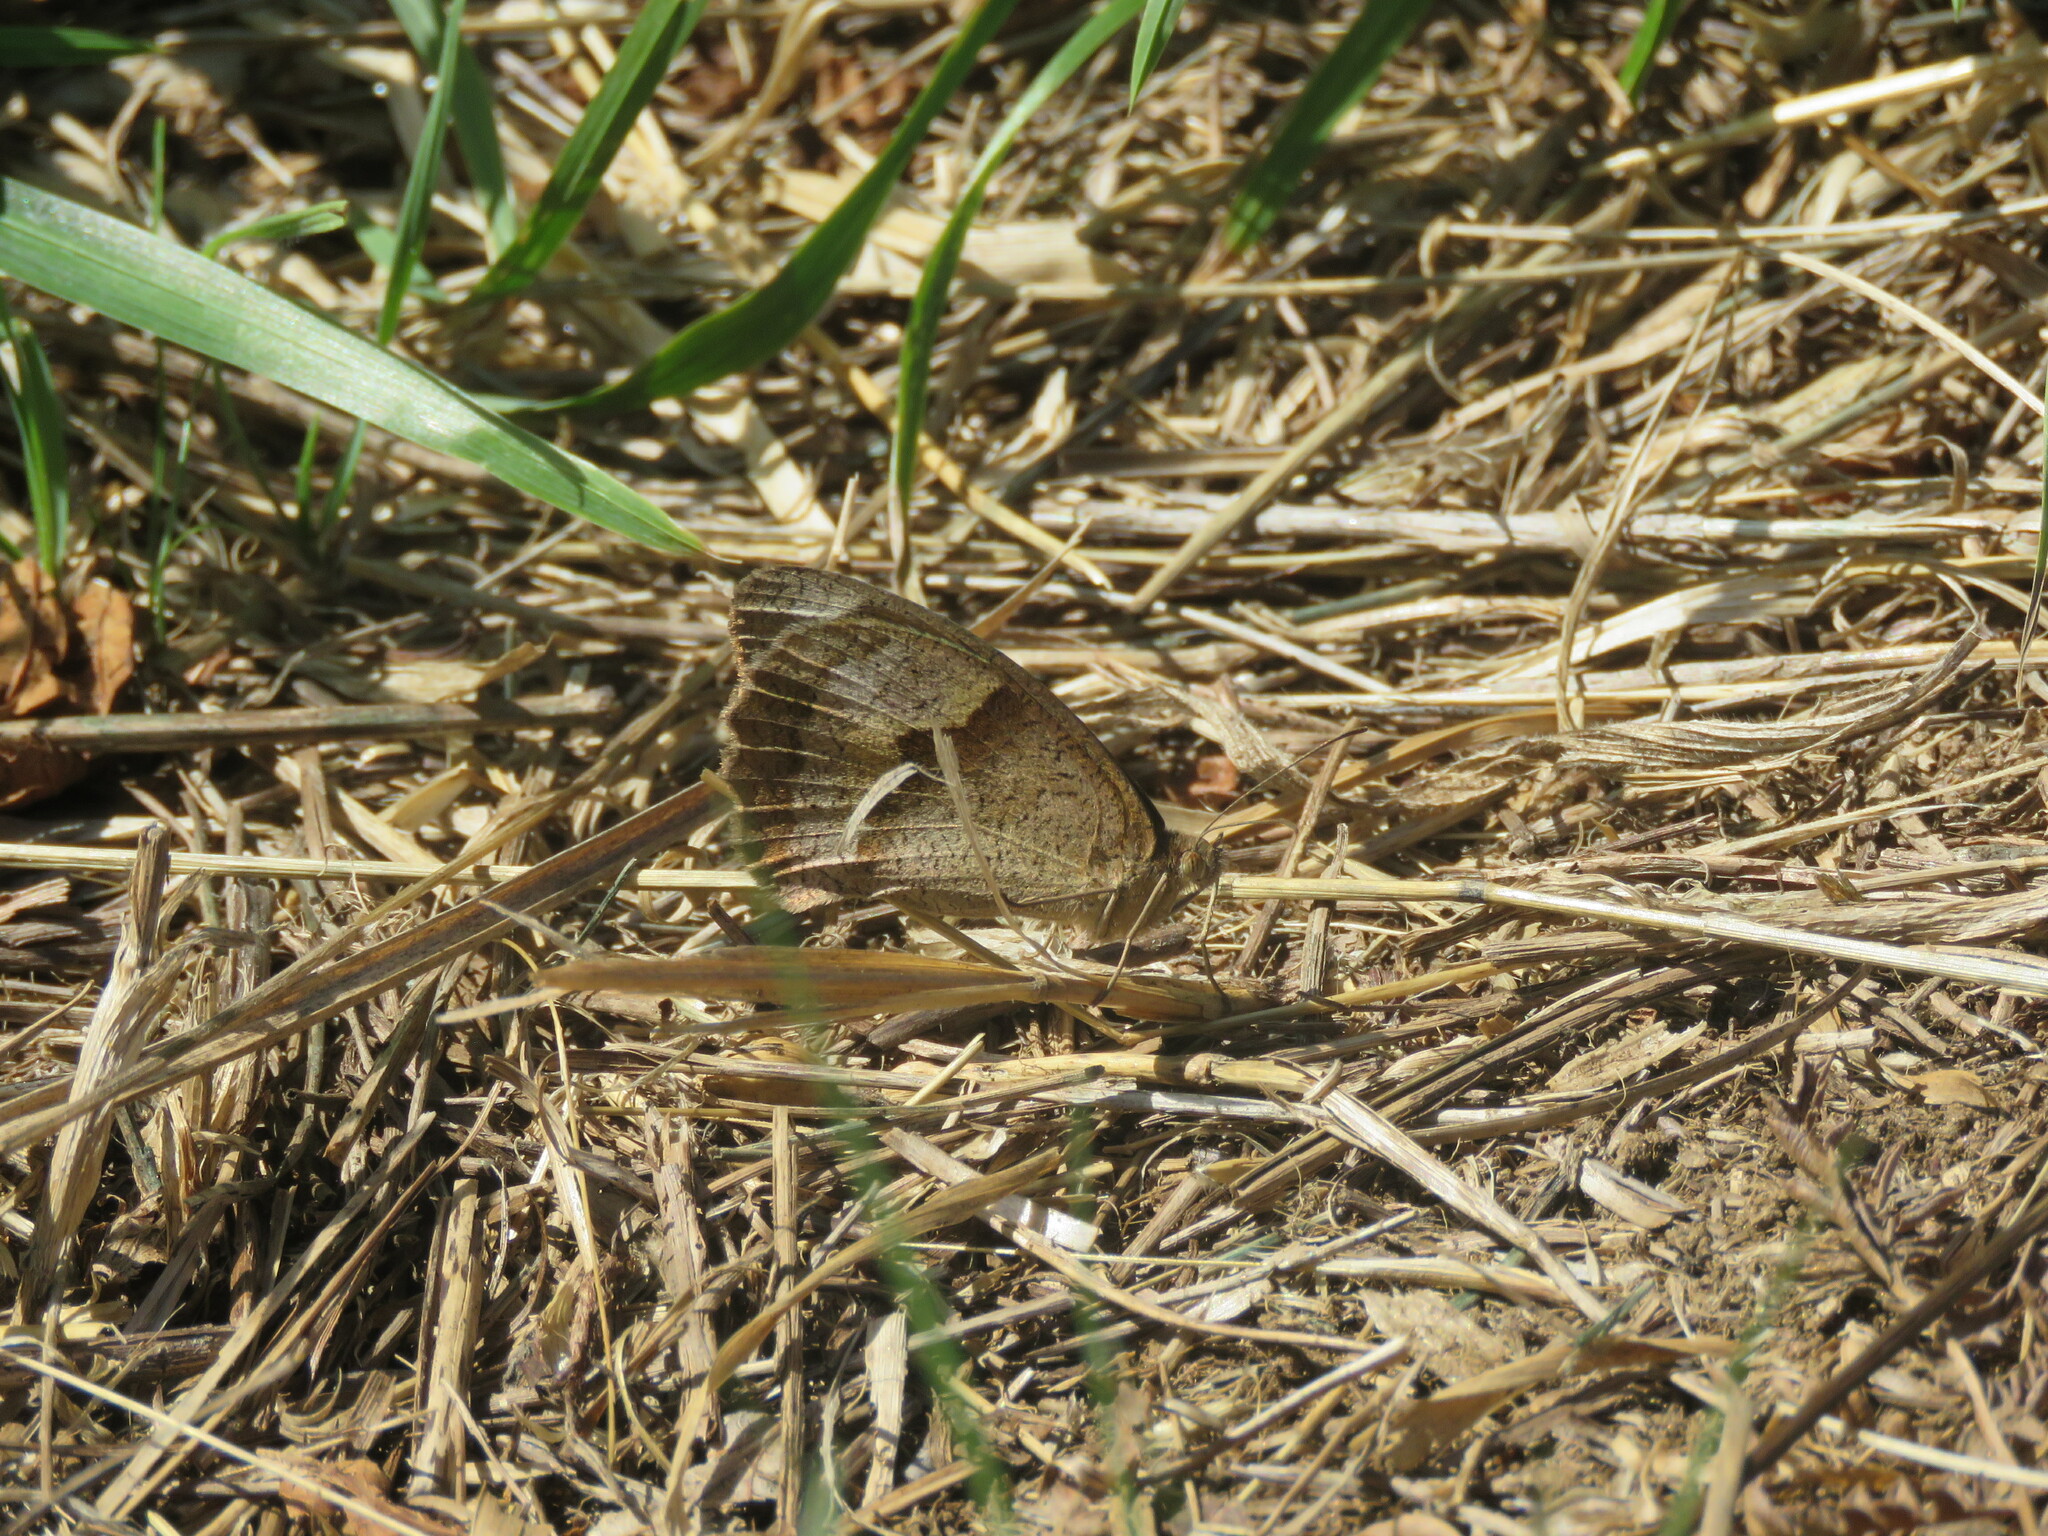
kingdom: Animalia
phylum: Arthropoda
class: Insecta
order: Lepidoptera
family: Nymphalidae
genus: Maniola
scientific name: Maniola jurtina
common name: Meadow brown
